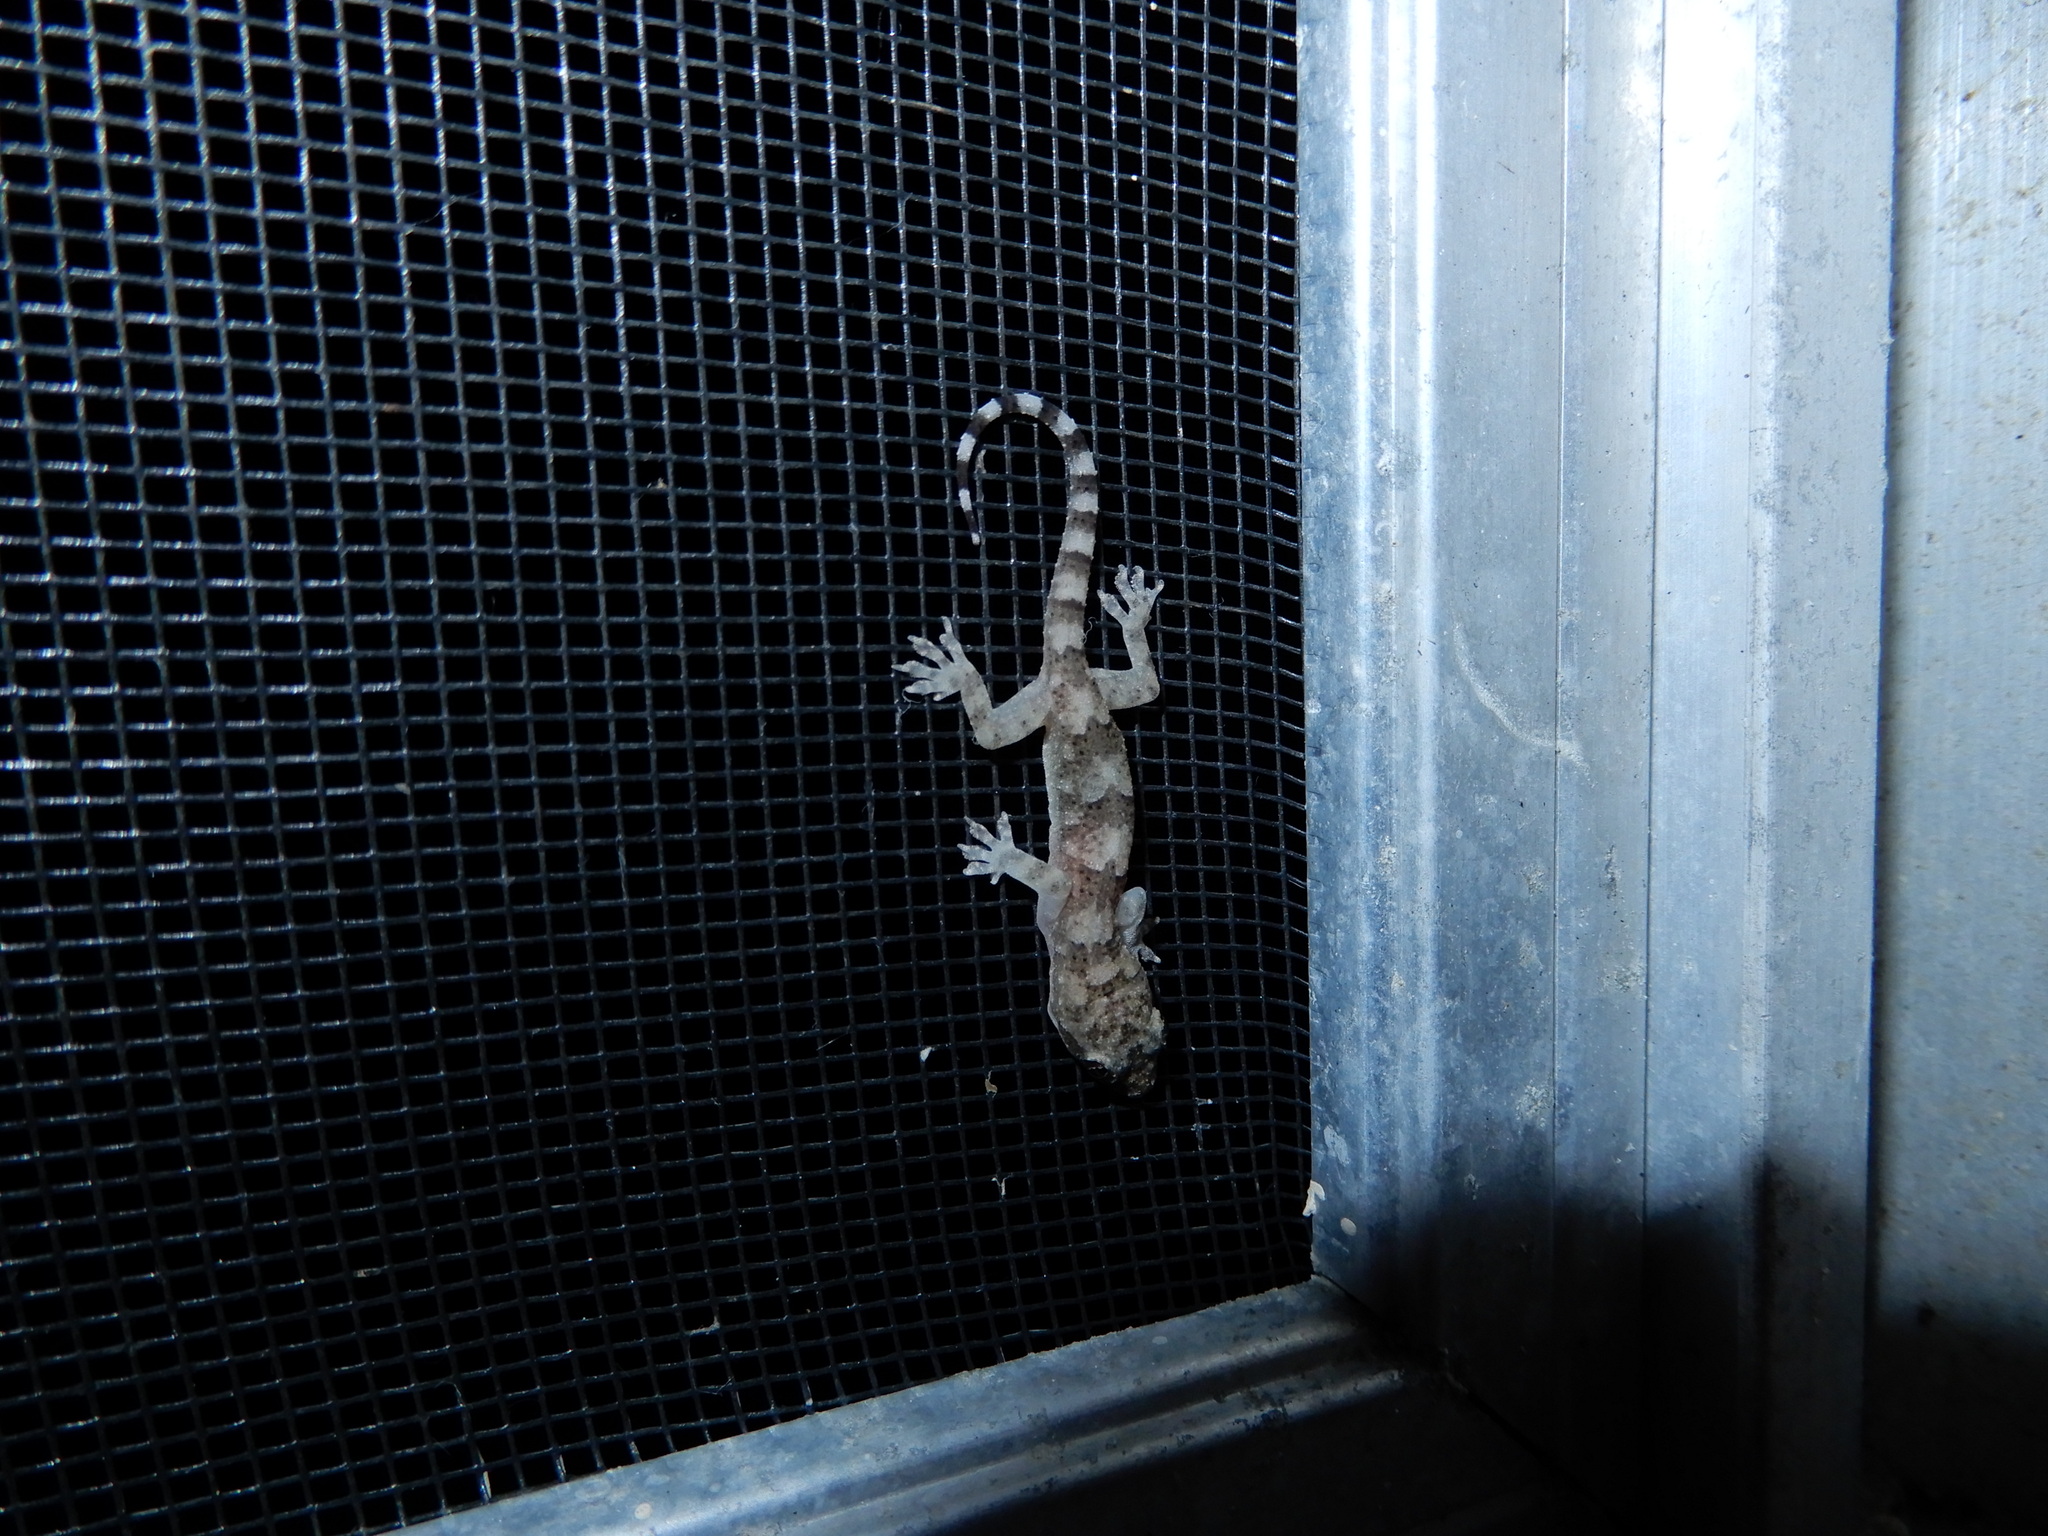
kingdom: Animalia
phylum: Chordata
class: Squamata
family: Gekkonidae
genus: Hemidactylus
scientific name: Hemidactylus mabouia
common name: House gecko
